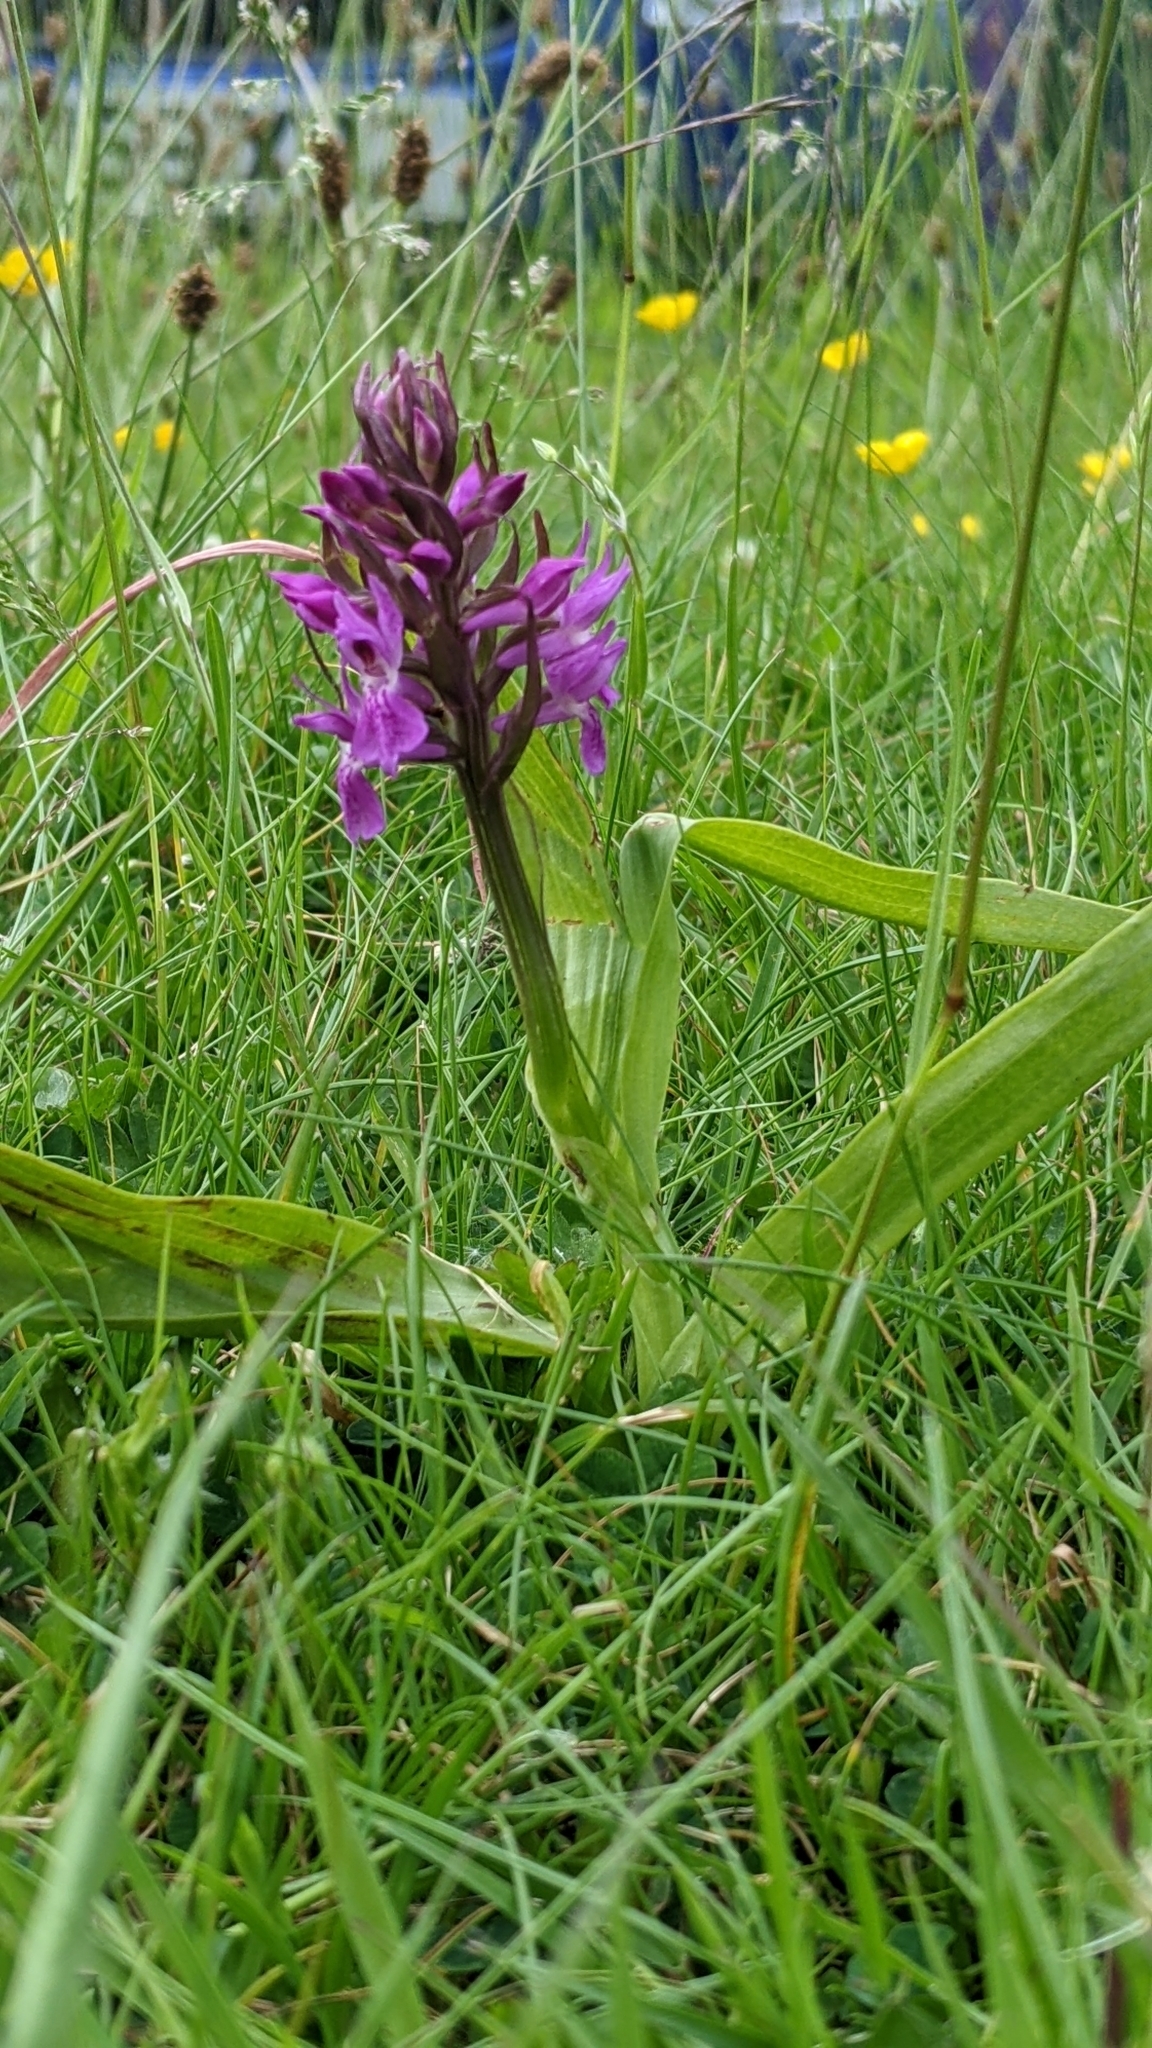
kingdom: Plantae
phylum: Tracheophyta
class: Liliopsida
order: Asparagales
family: Orchidaceae
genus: Dactylorhiza
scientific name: Dactylorhiza majalis
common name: Marsh orchid
